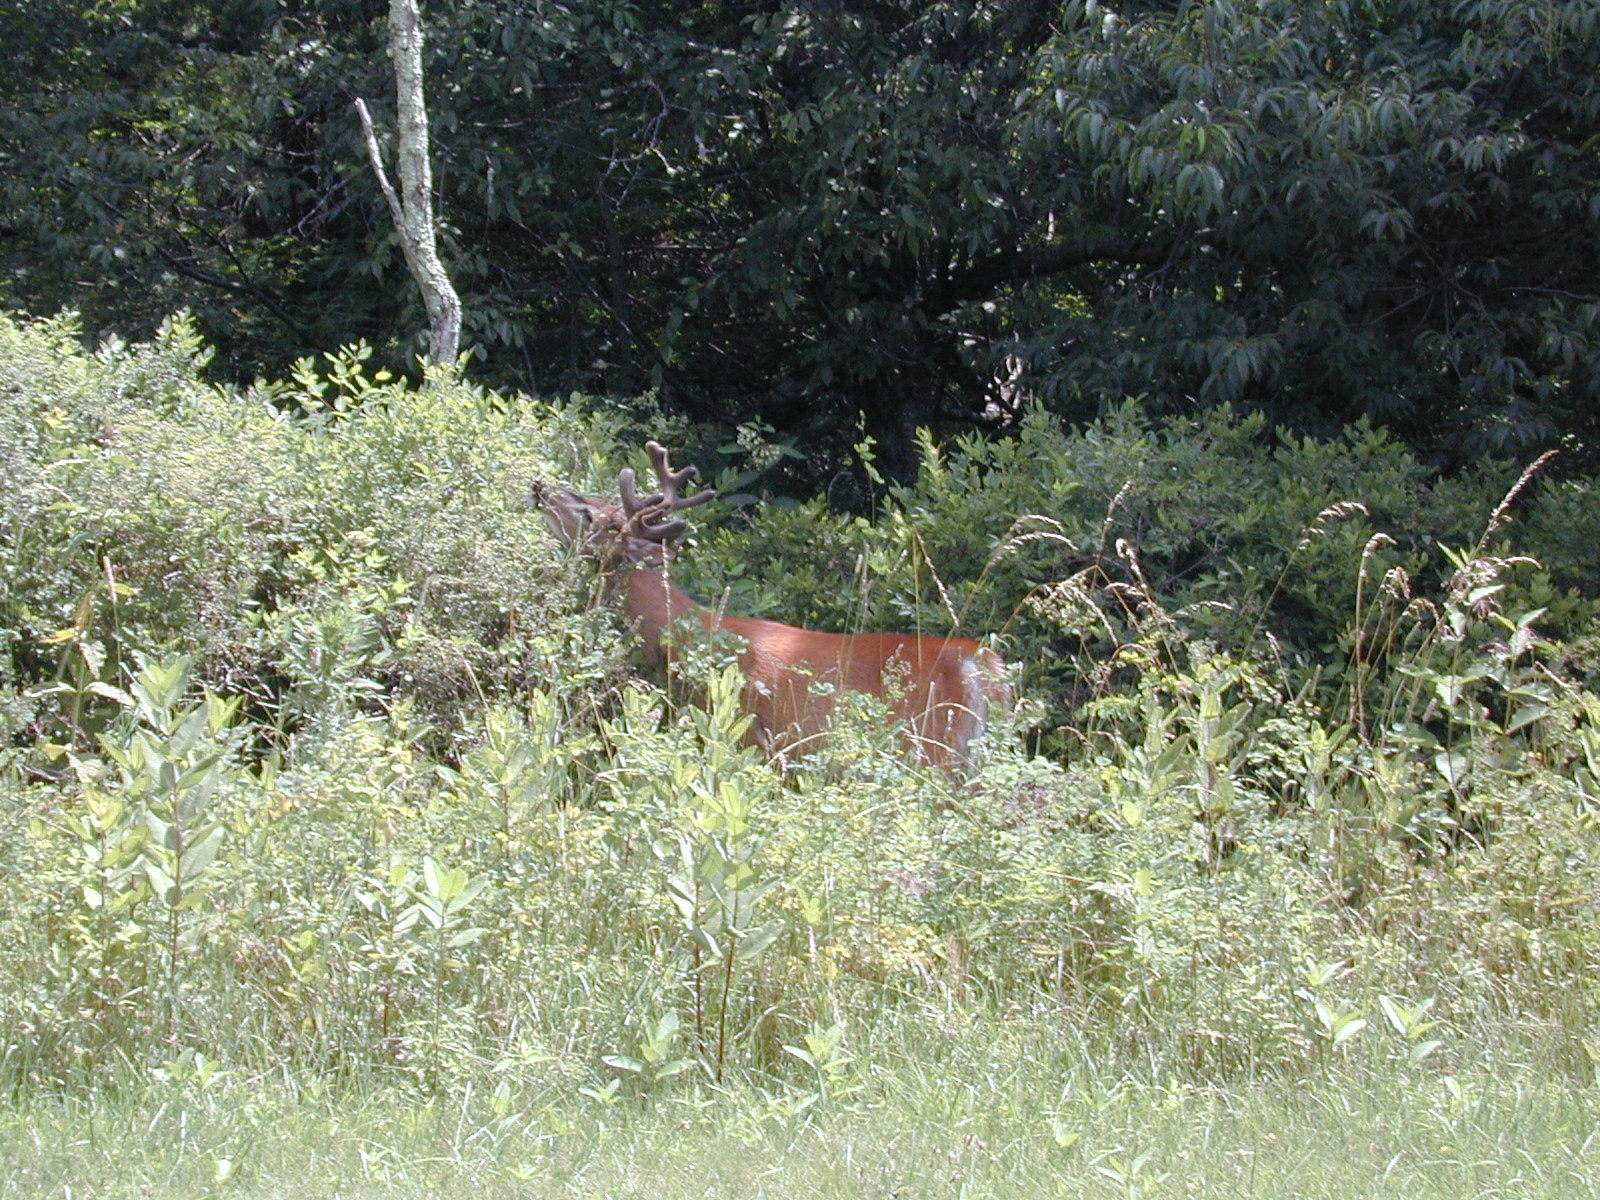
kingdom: Animalia
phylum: Chordata
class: Mammalia
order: Artiodactyla
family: Cervidae
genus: Odocoileus
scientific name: Odocoileus virginianus
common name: White-tailed deer
